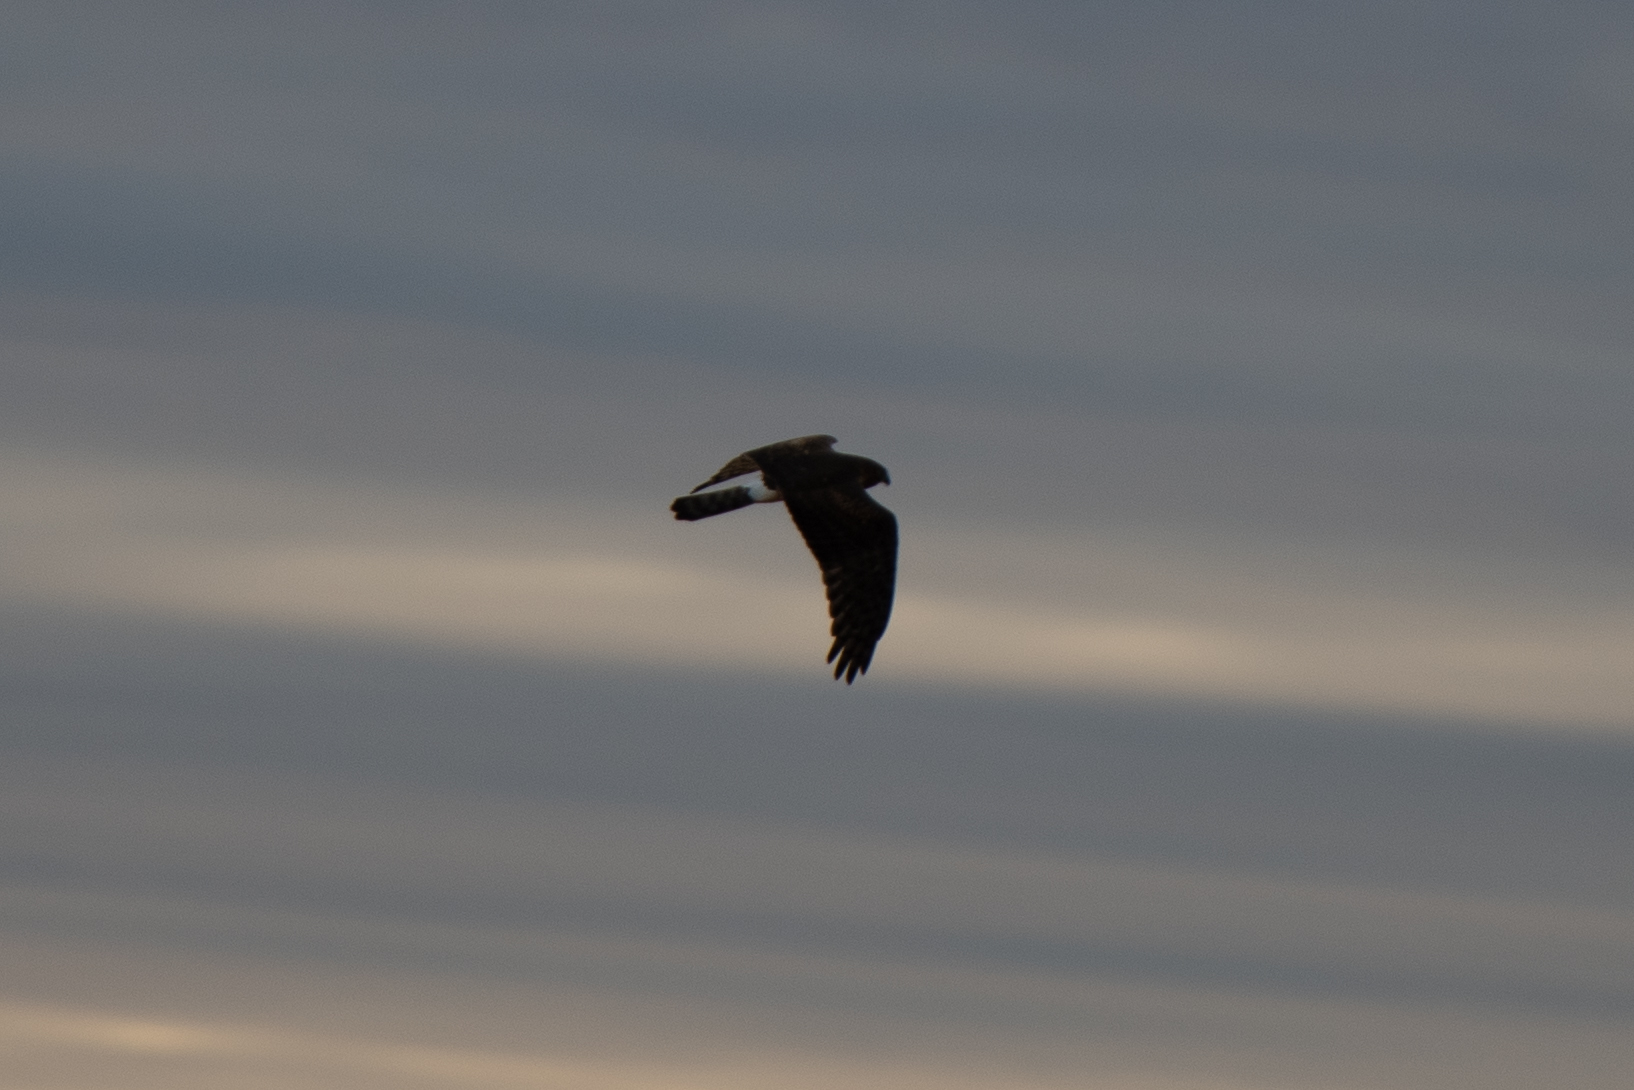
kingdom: Animalia
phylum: Chordata
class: Aves
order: Accipitriformes
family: Accipitridae
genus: Circus
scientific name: Circus cyaneus
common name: Hen harrier
